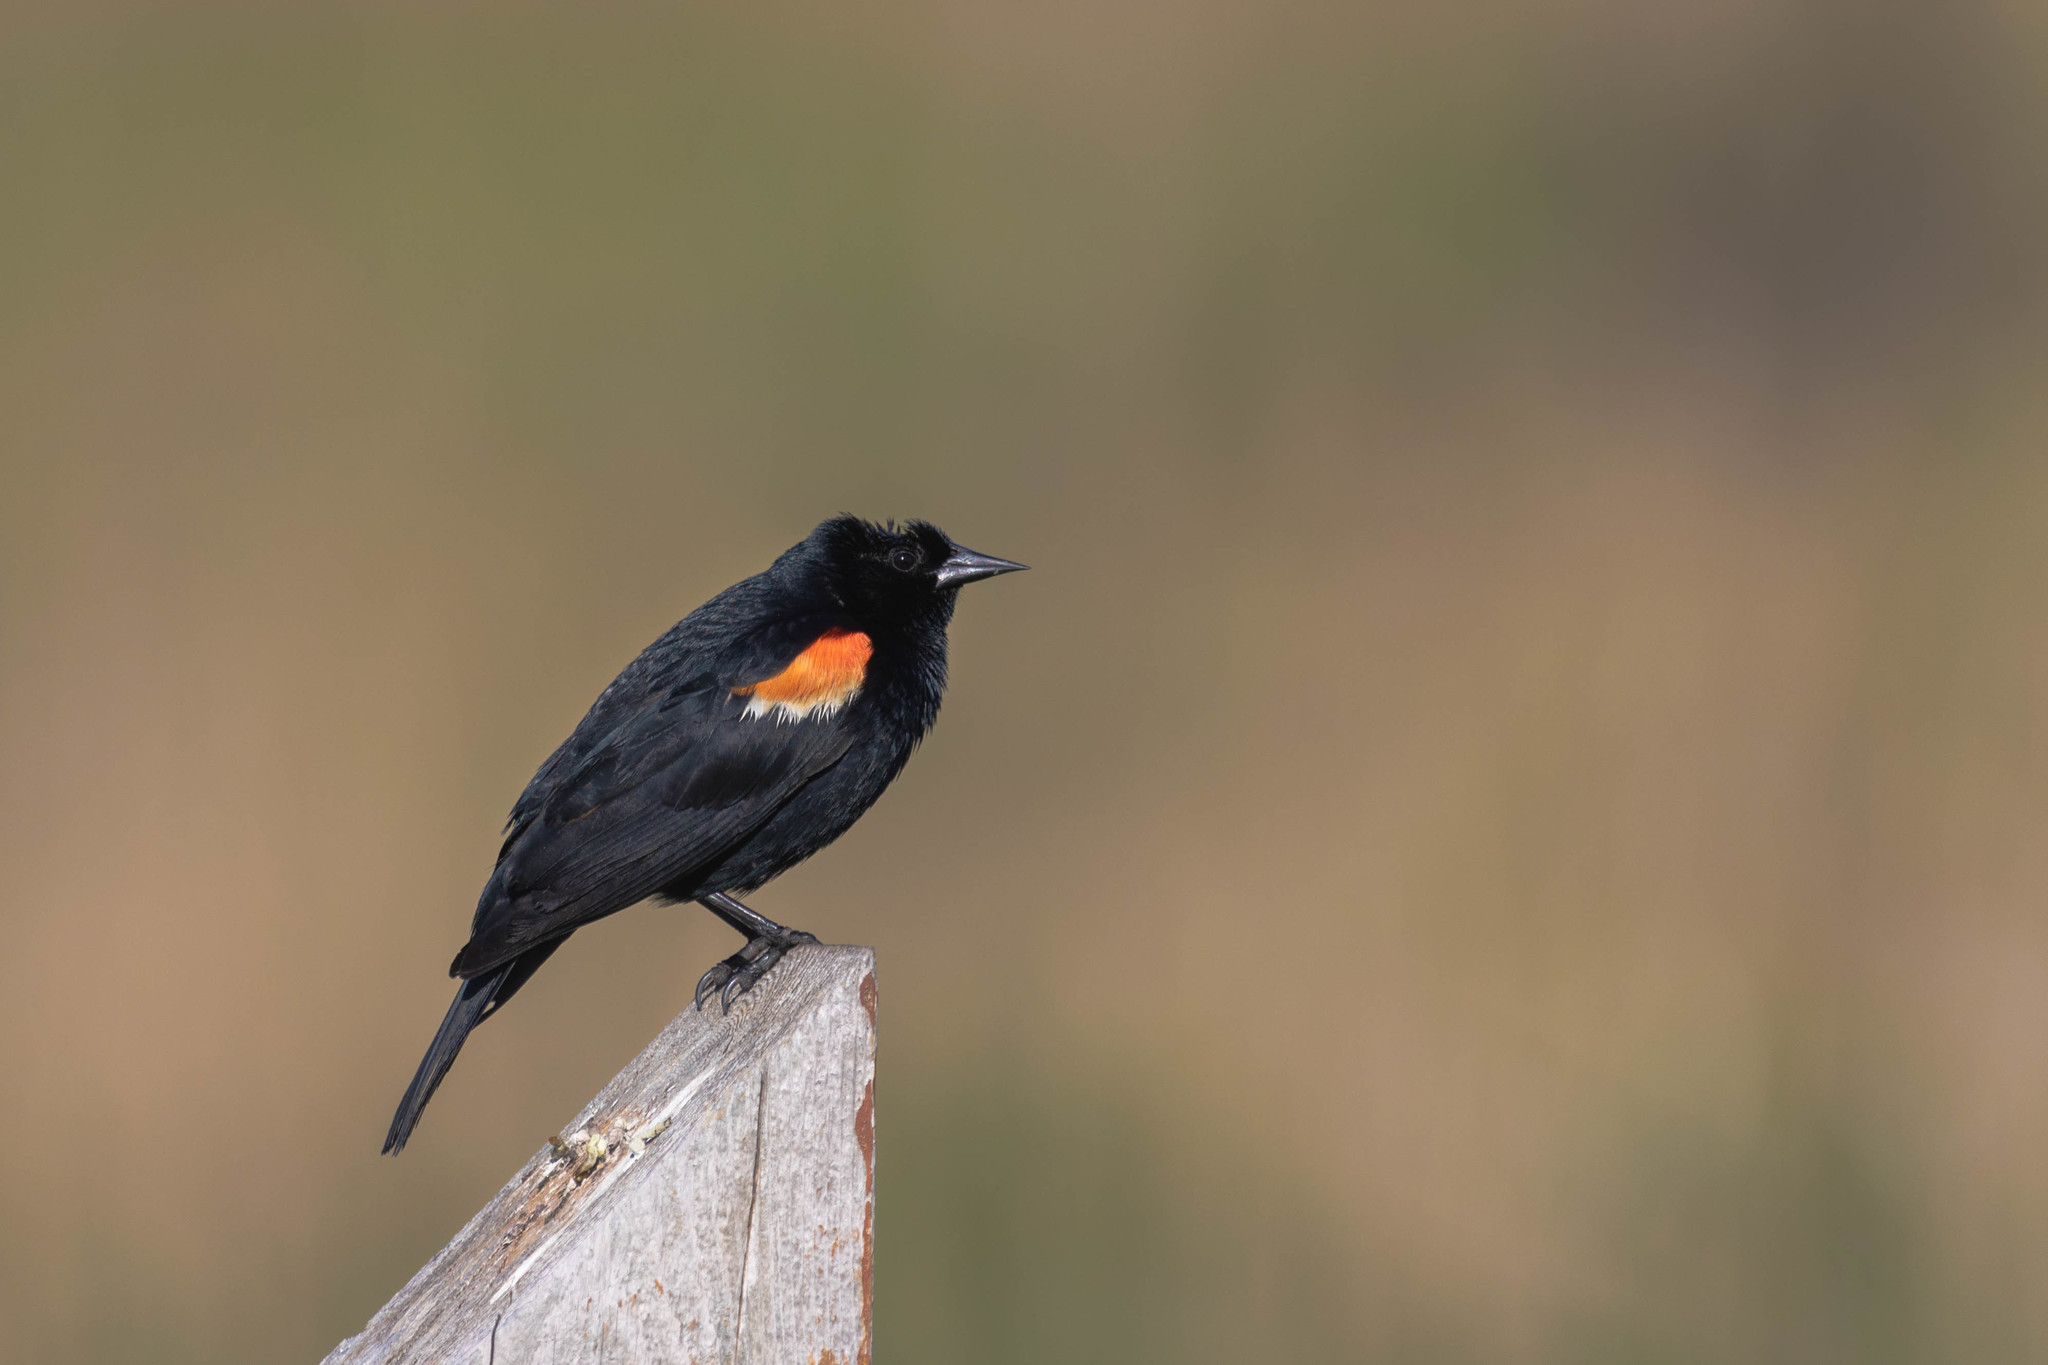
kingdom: Animalia
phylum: Chordata
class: Aves
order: Passeriformes
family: Icteridae
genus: Agelaius
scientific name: Agelaius phoeniceus
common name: Red-winged blackbird
